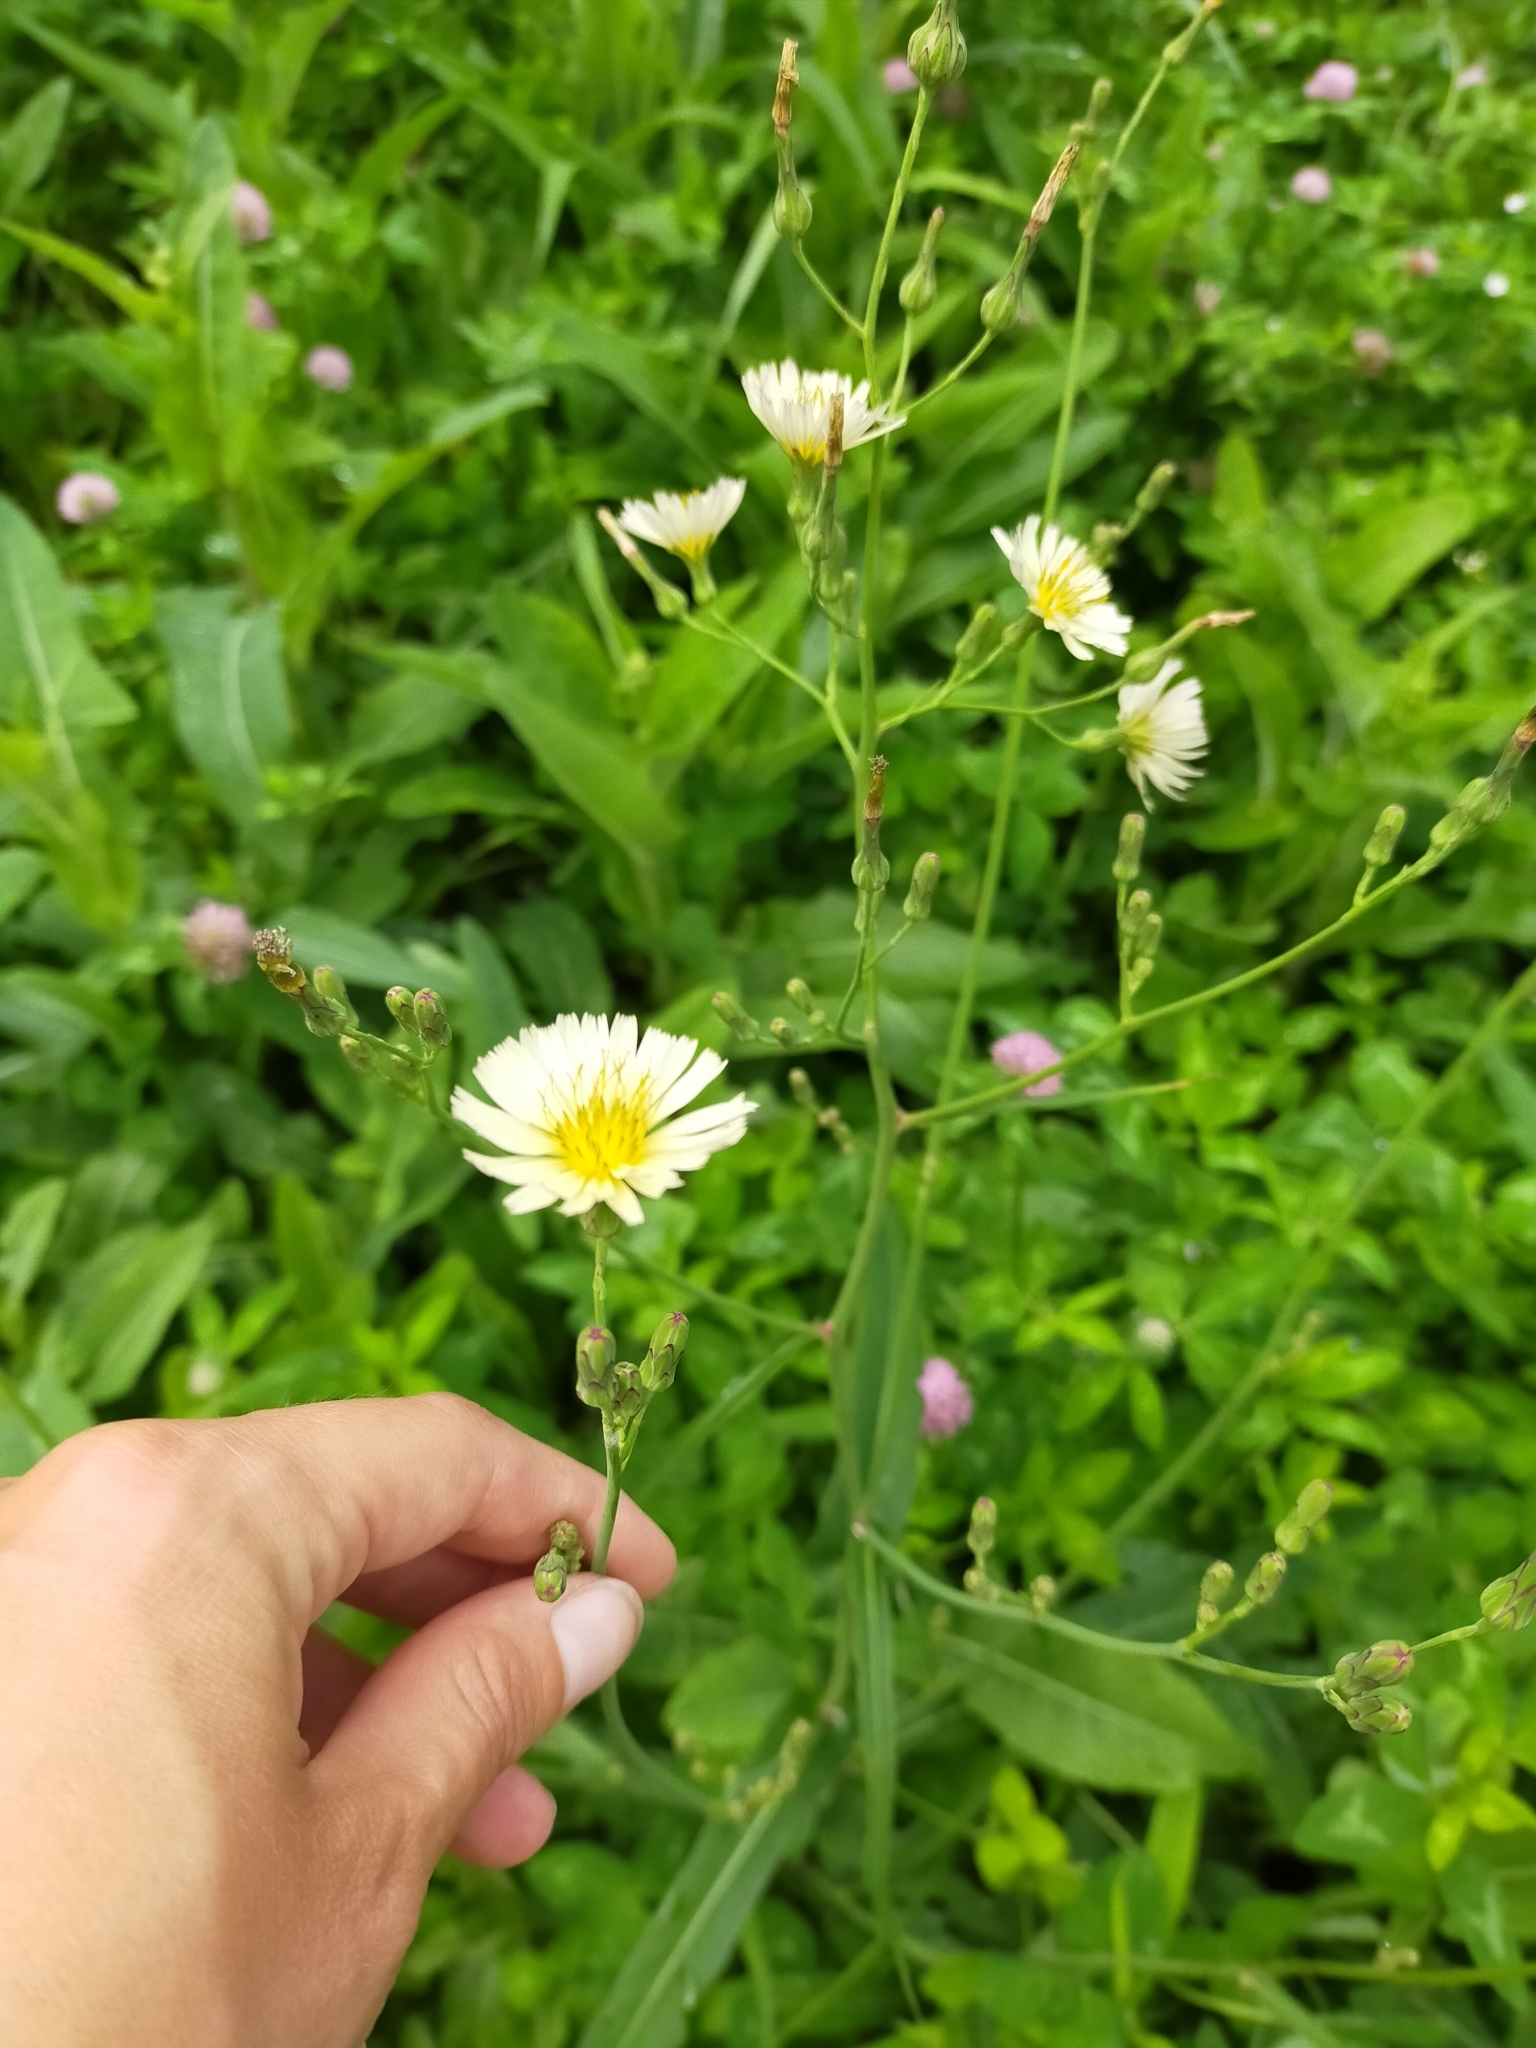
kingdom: Plantae
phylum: Tracheophyta
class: Magnoliopsida
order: Asterales
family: Asteraceae
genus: Lactuca
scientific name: Lactuca indica
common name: Wild lettuce
